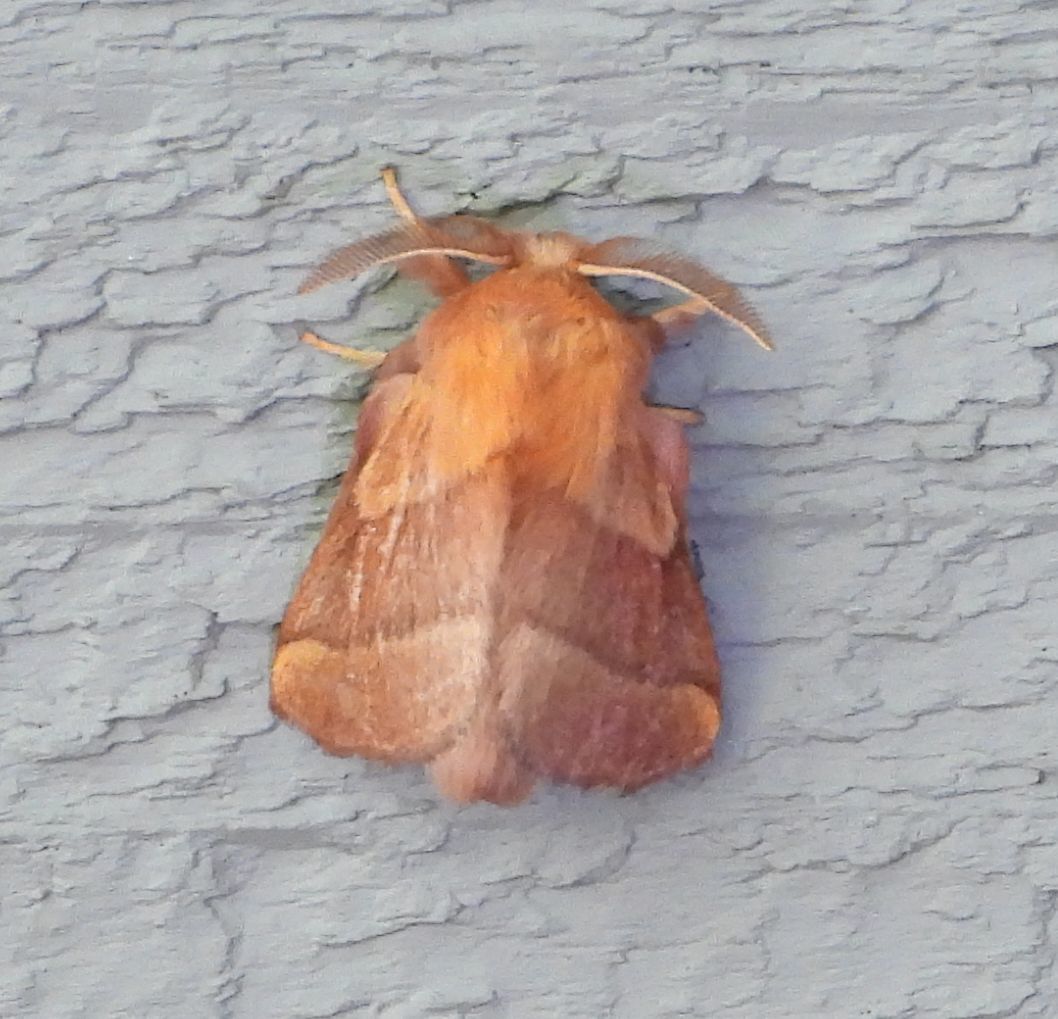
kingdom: Animalia
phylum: Arthropoda
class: Insecta
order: Lepidoptera
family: Lasiocampidae
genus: Malacosoma
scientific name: Malacosoma disstria
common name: Forest tent caterpillar
